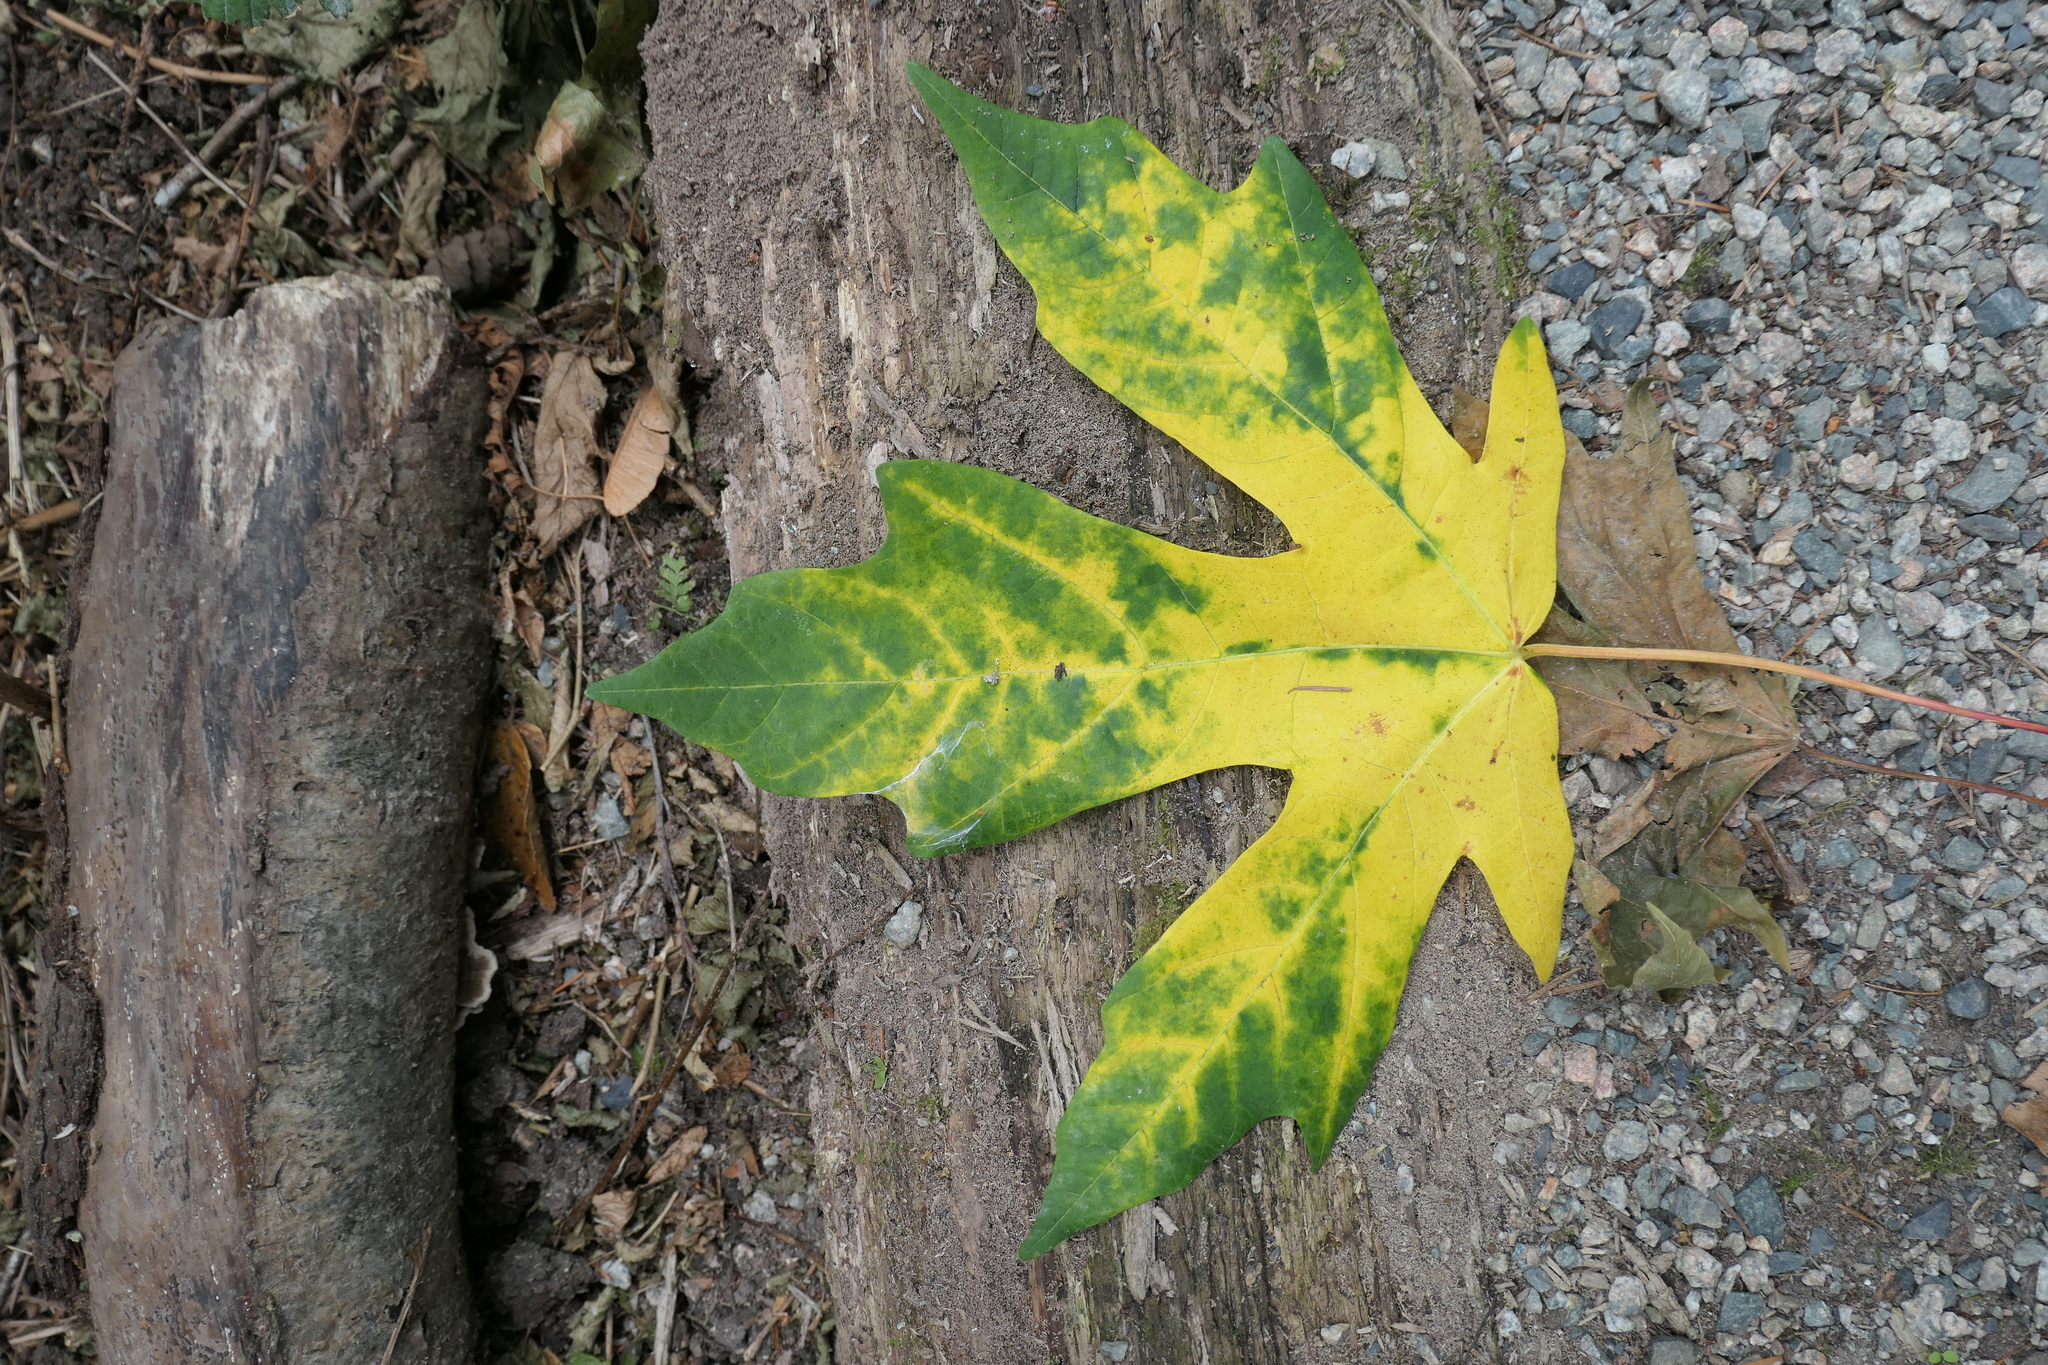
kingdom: Plantae
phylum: Tracheophyta
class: Magnoliopsida
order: Sapindales
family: Sapindaceae
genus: Acer
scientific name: Acer macrophyllum
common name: Oregon maple
